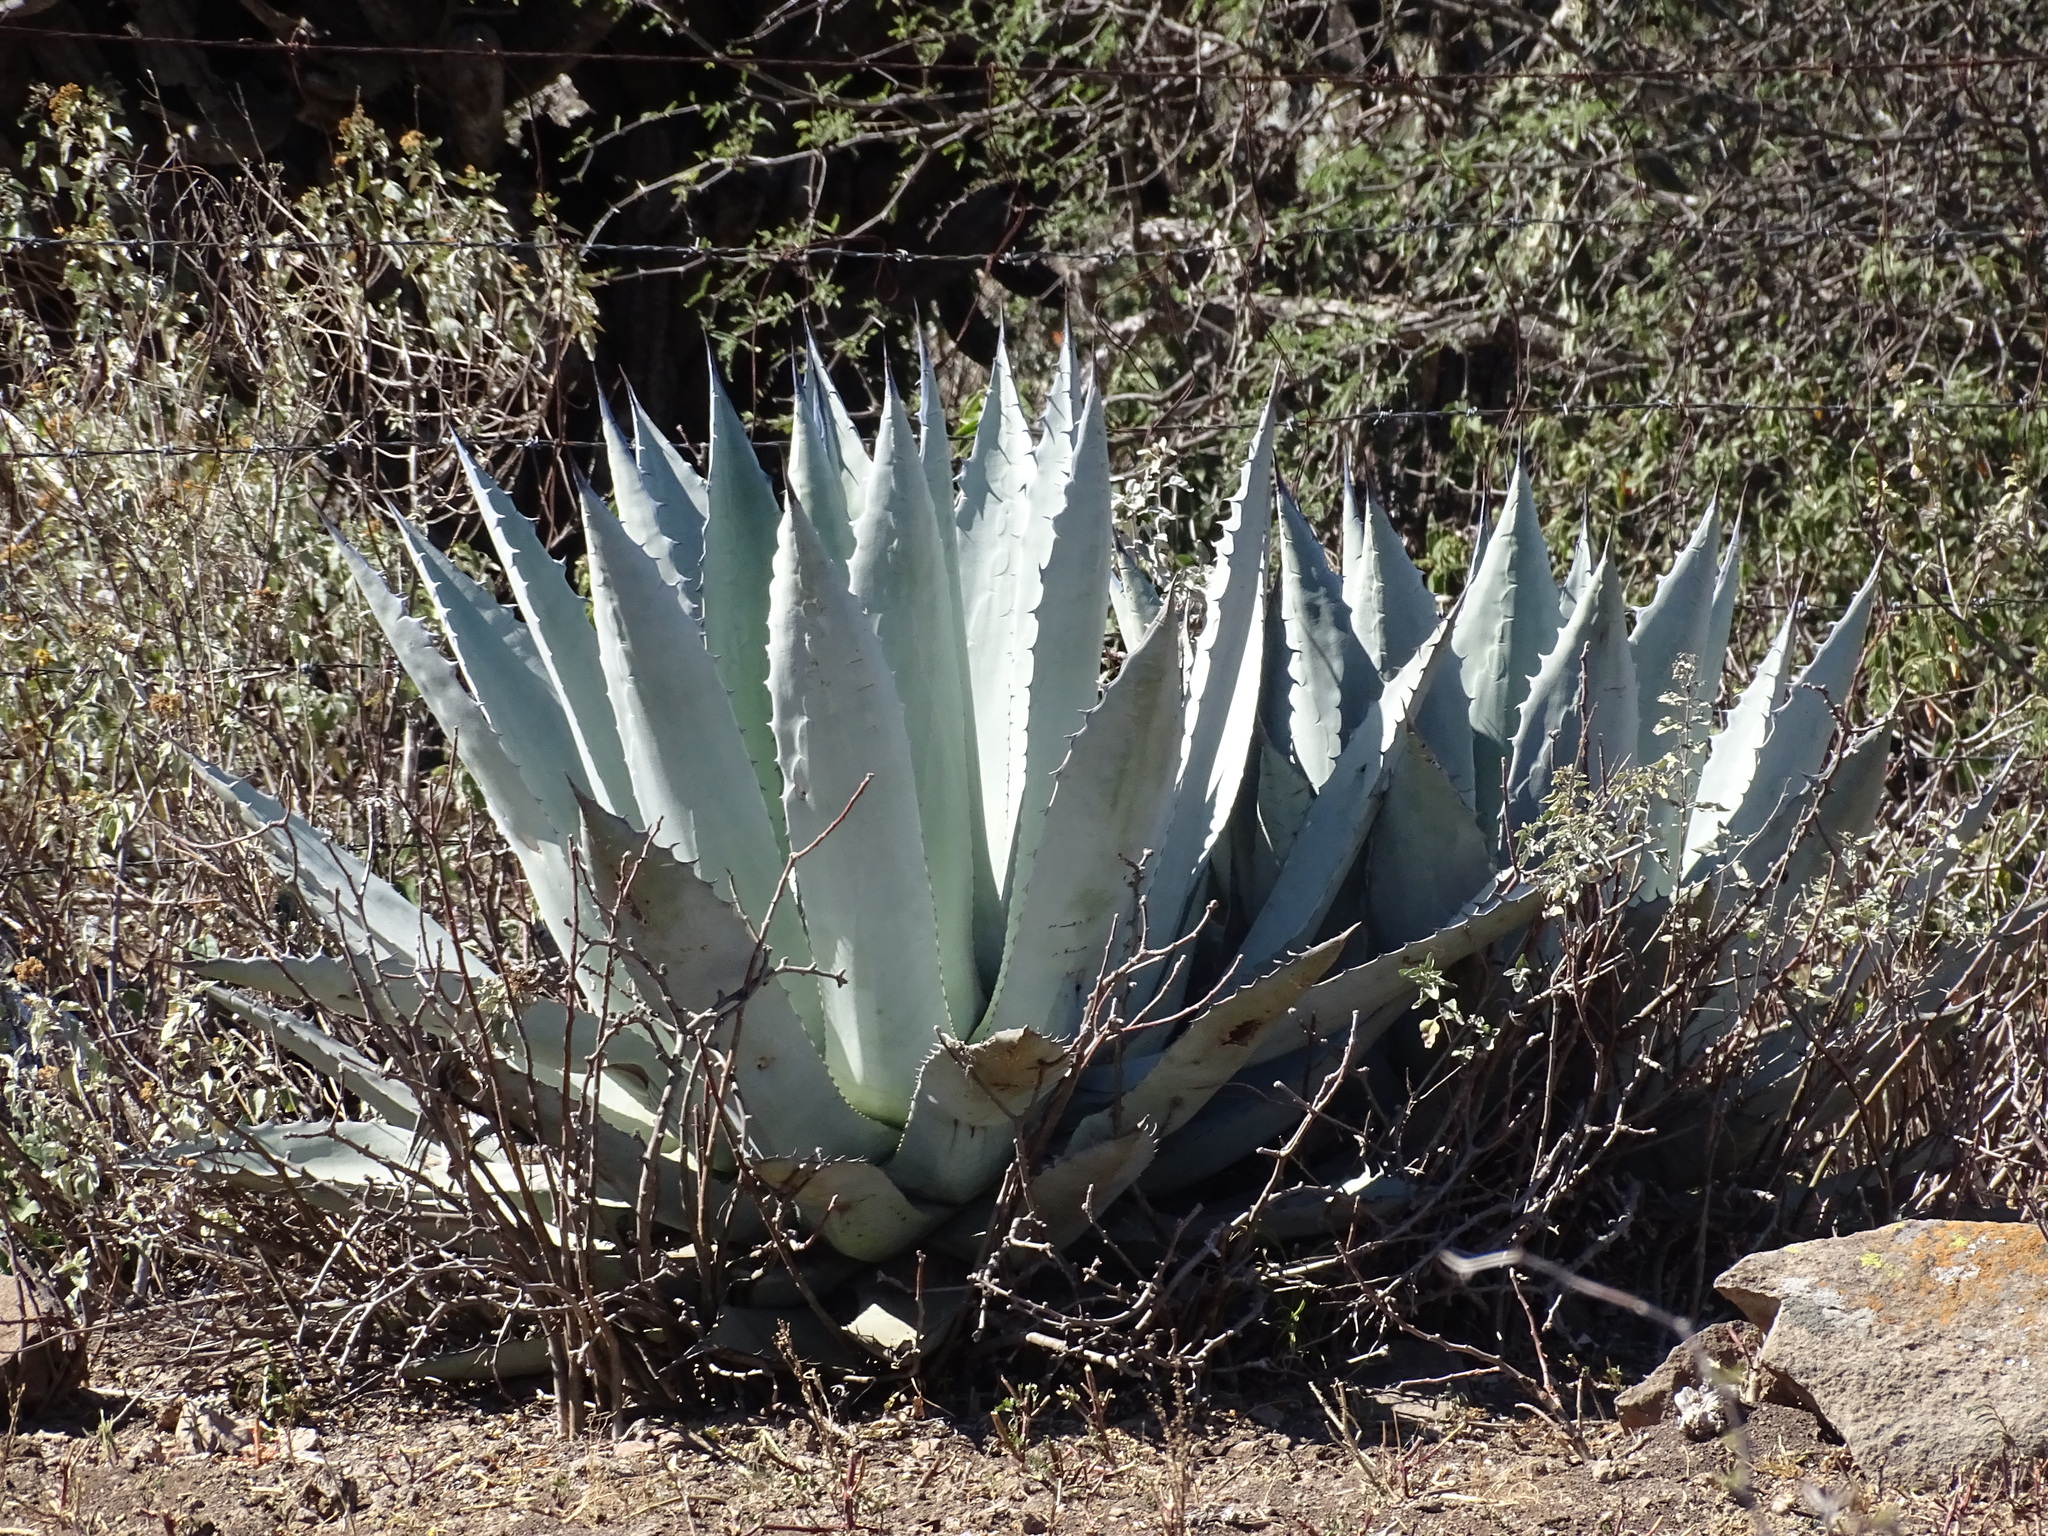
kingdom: Plantae
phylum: Tracheophyta
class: Liliopsida
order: Asparagales
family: Asparagaceae
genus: Agave
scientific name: Agave applanata
